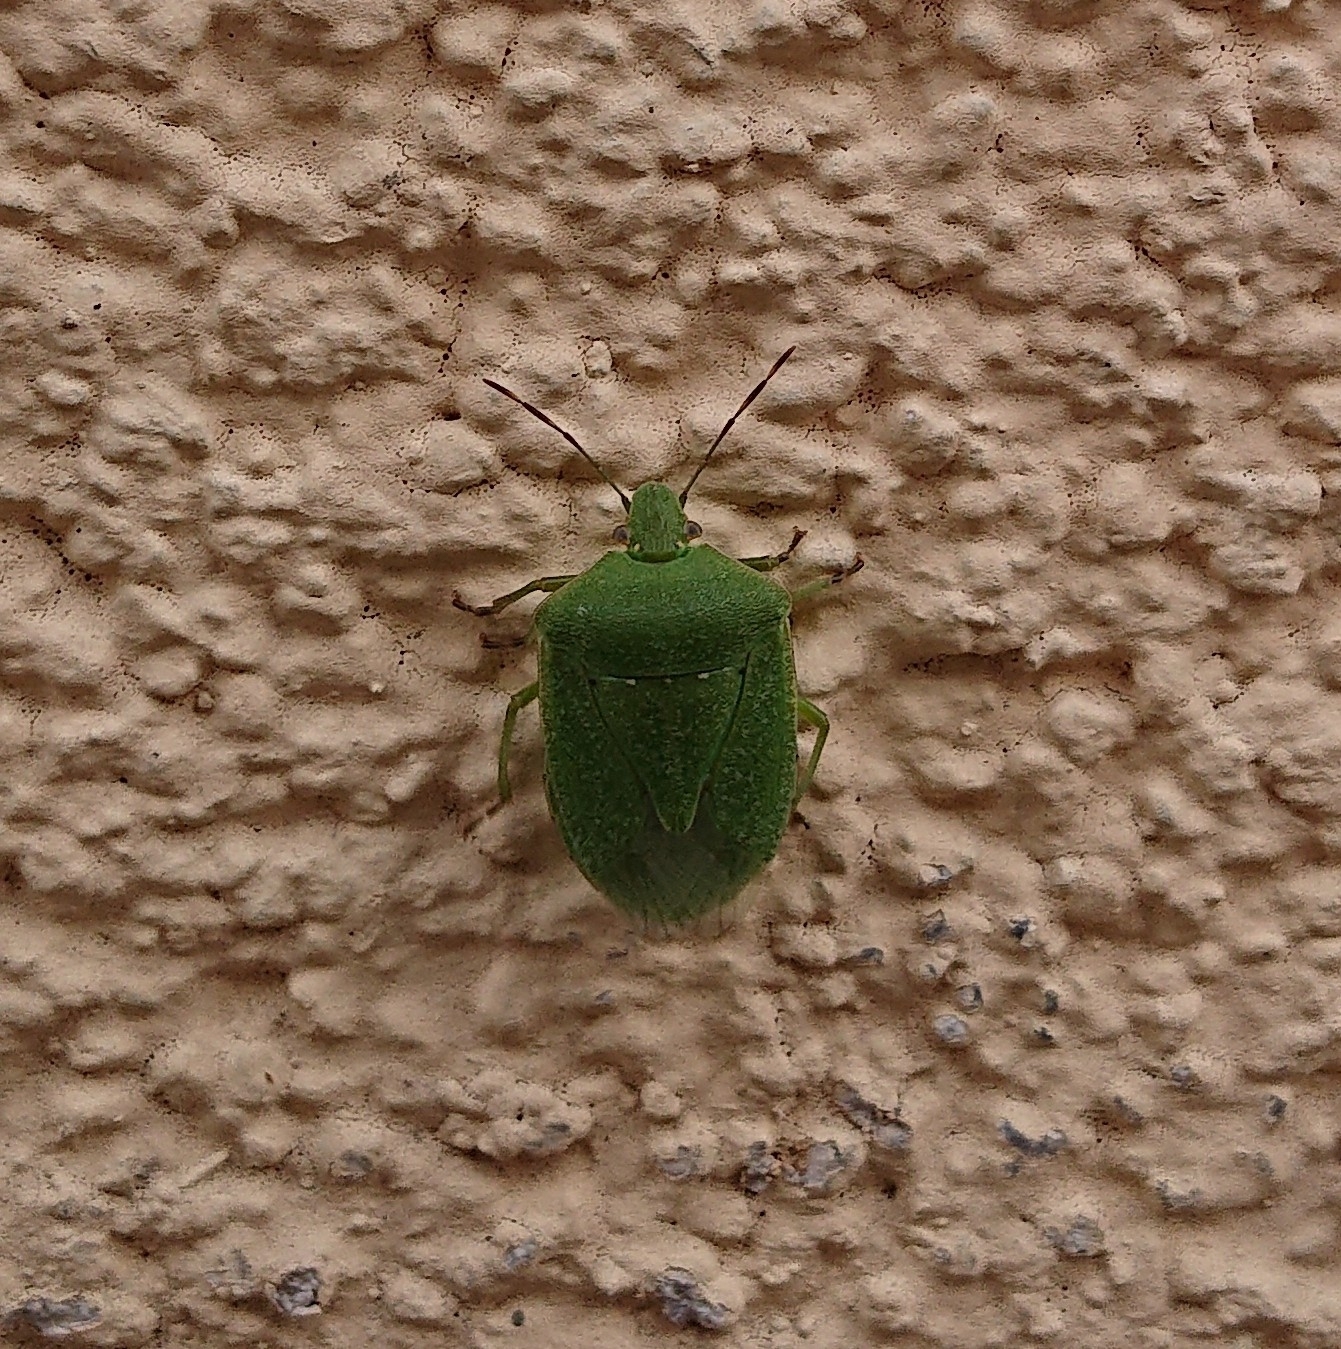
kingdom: Animalia
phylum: Arthropoda
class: Insecta
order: Hemiptera
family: Pentatomidae
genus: Nezara
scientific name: Nezara viridula
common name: Southern green stink bug
